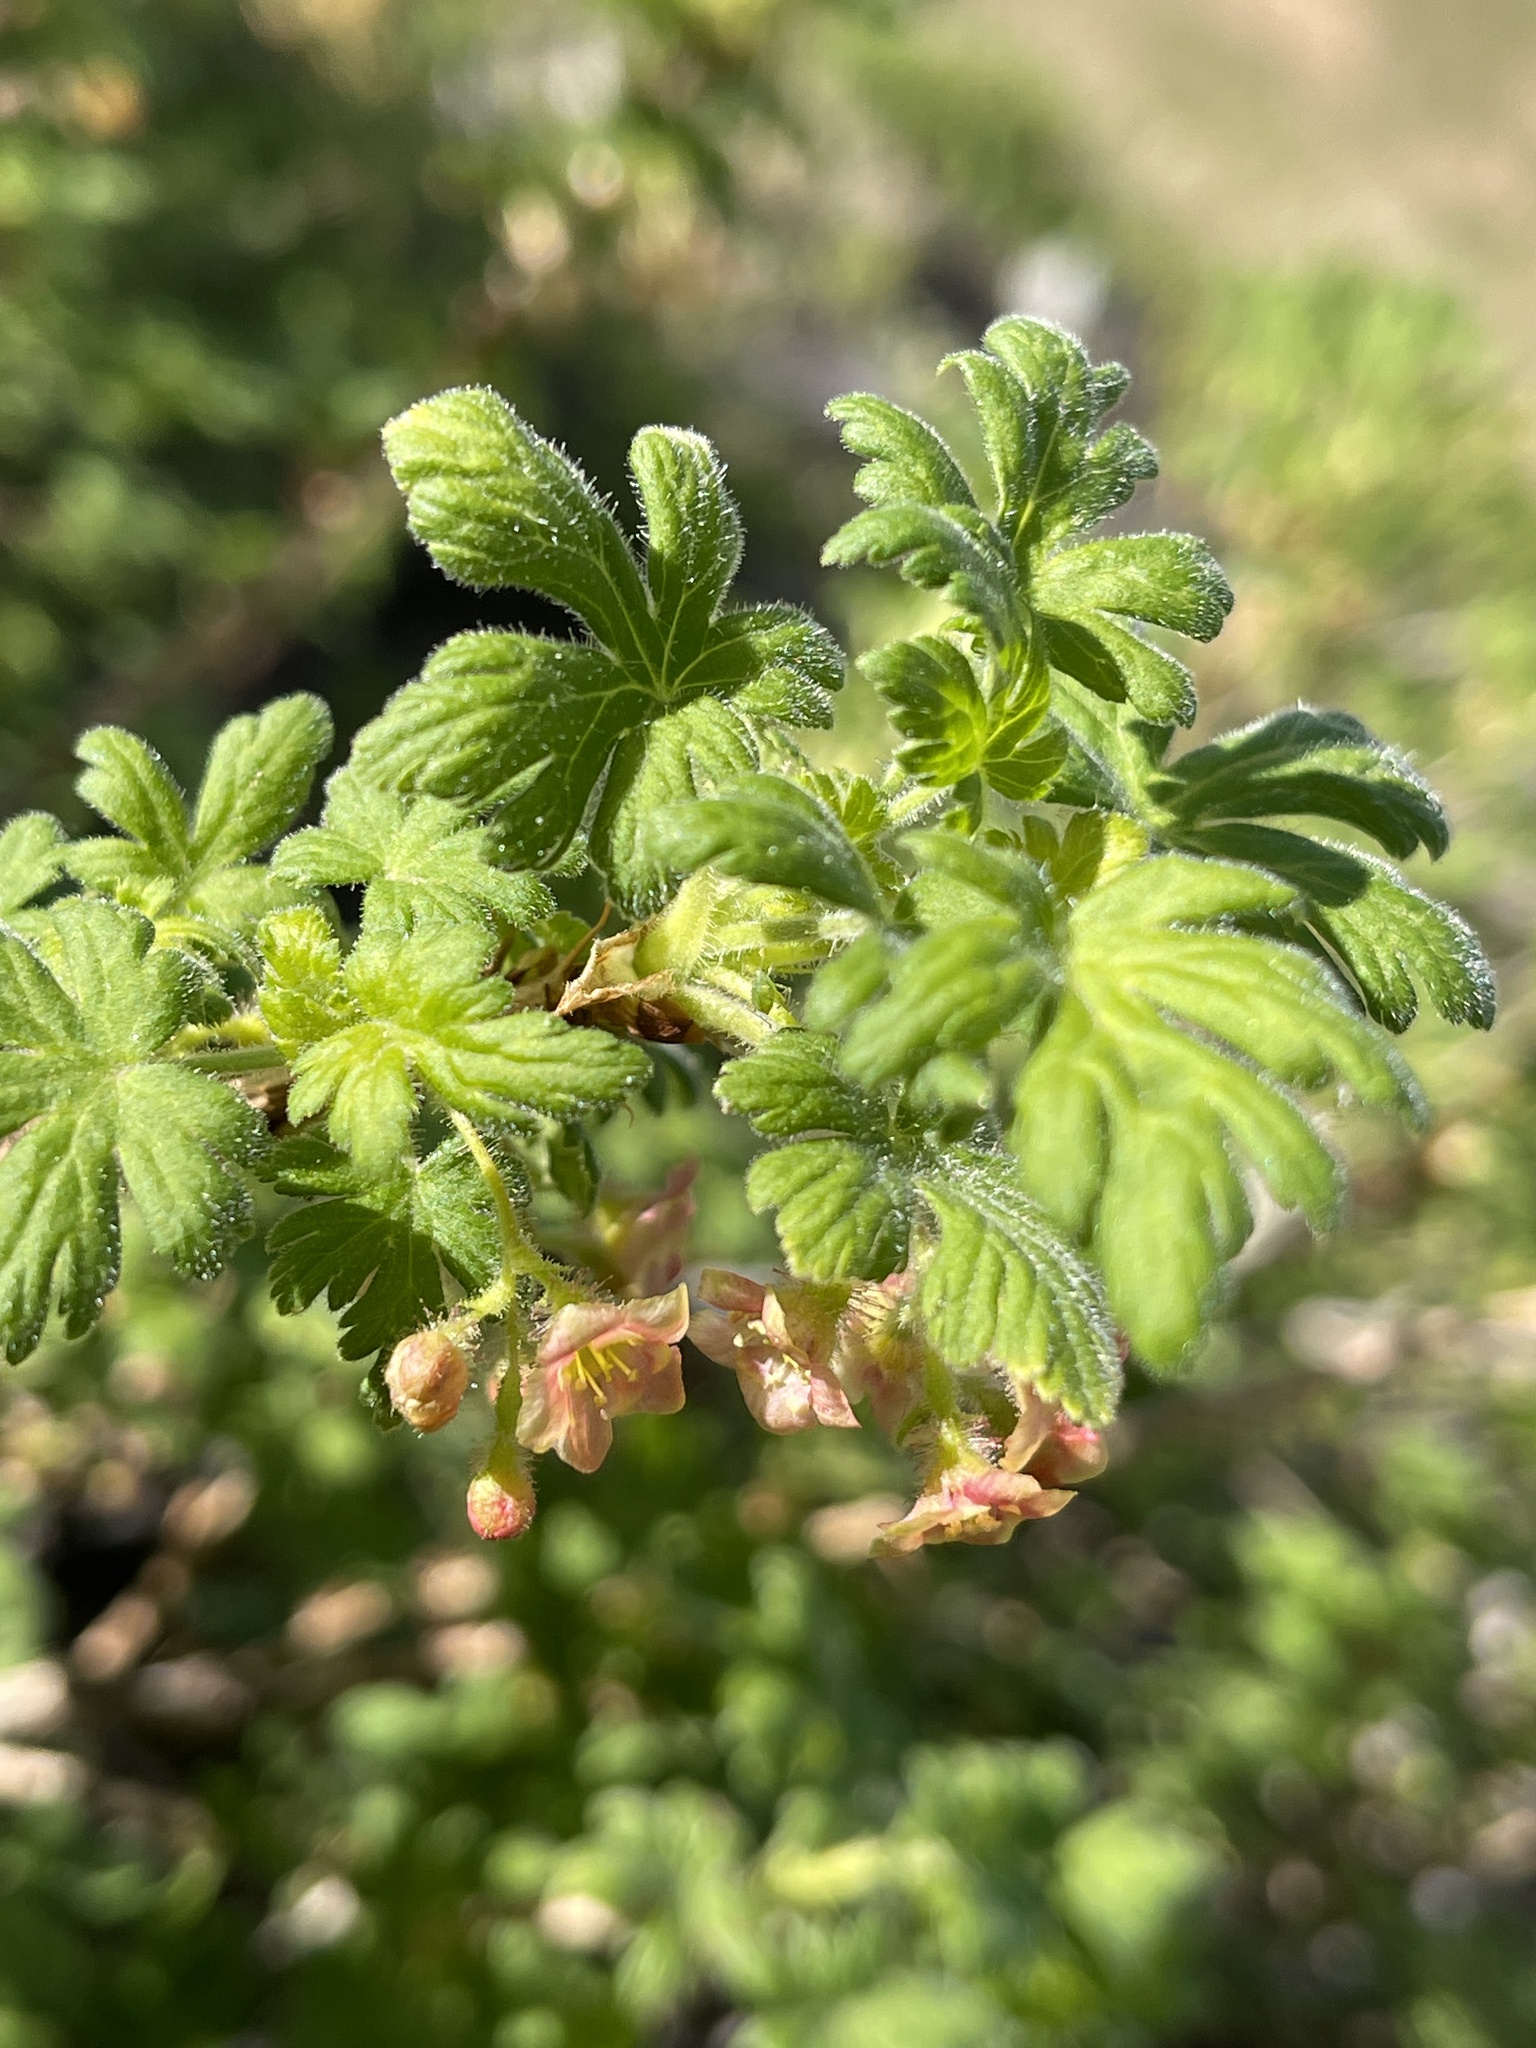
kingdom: Plantae
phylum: Tracheophyta
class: Magnoliopsida
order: Saxifragales
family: Grossulariaceae
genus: Ribes
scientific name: Ribes montigenum
